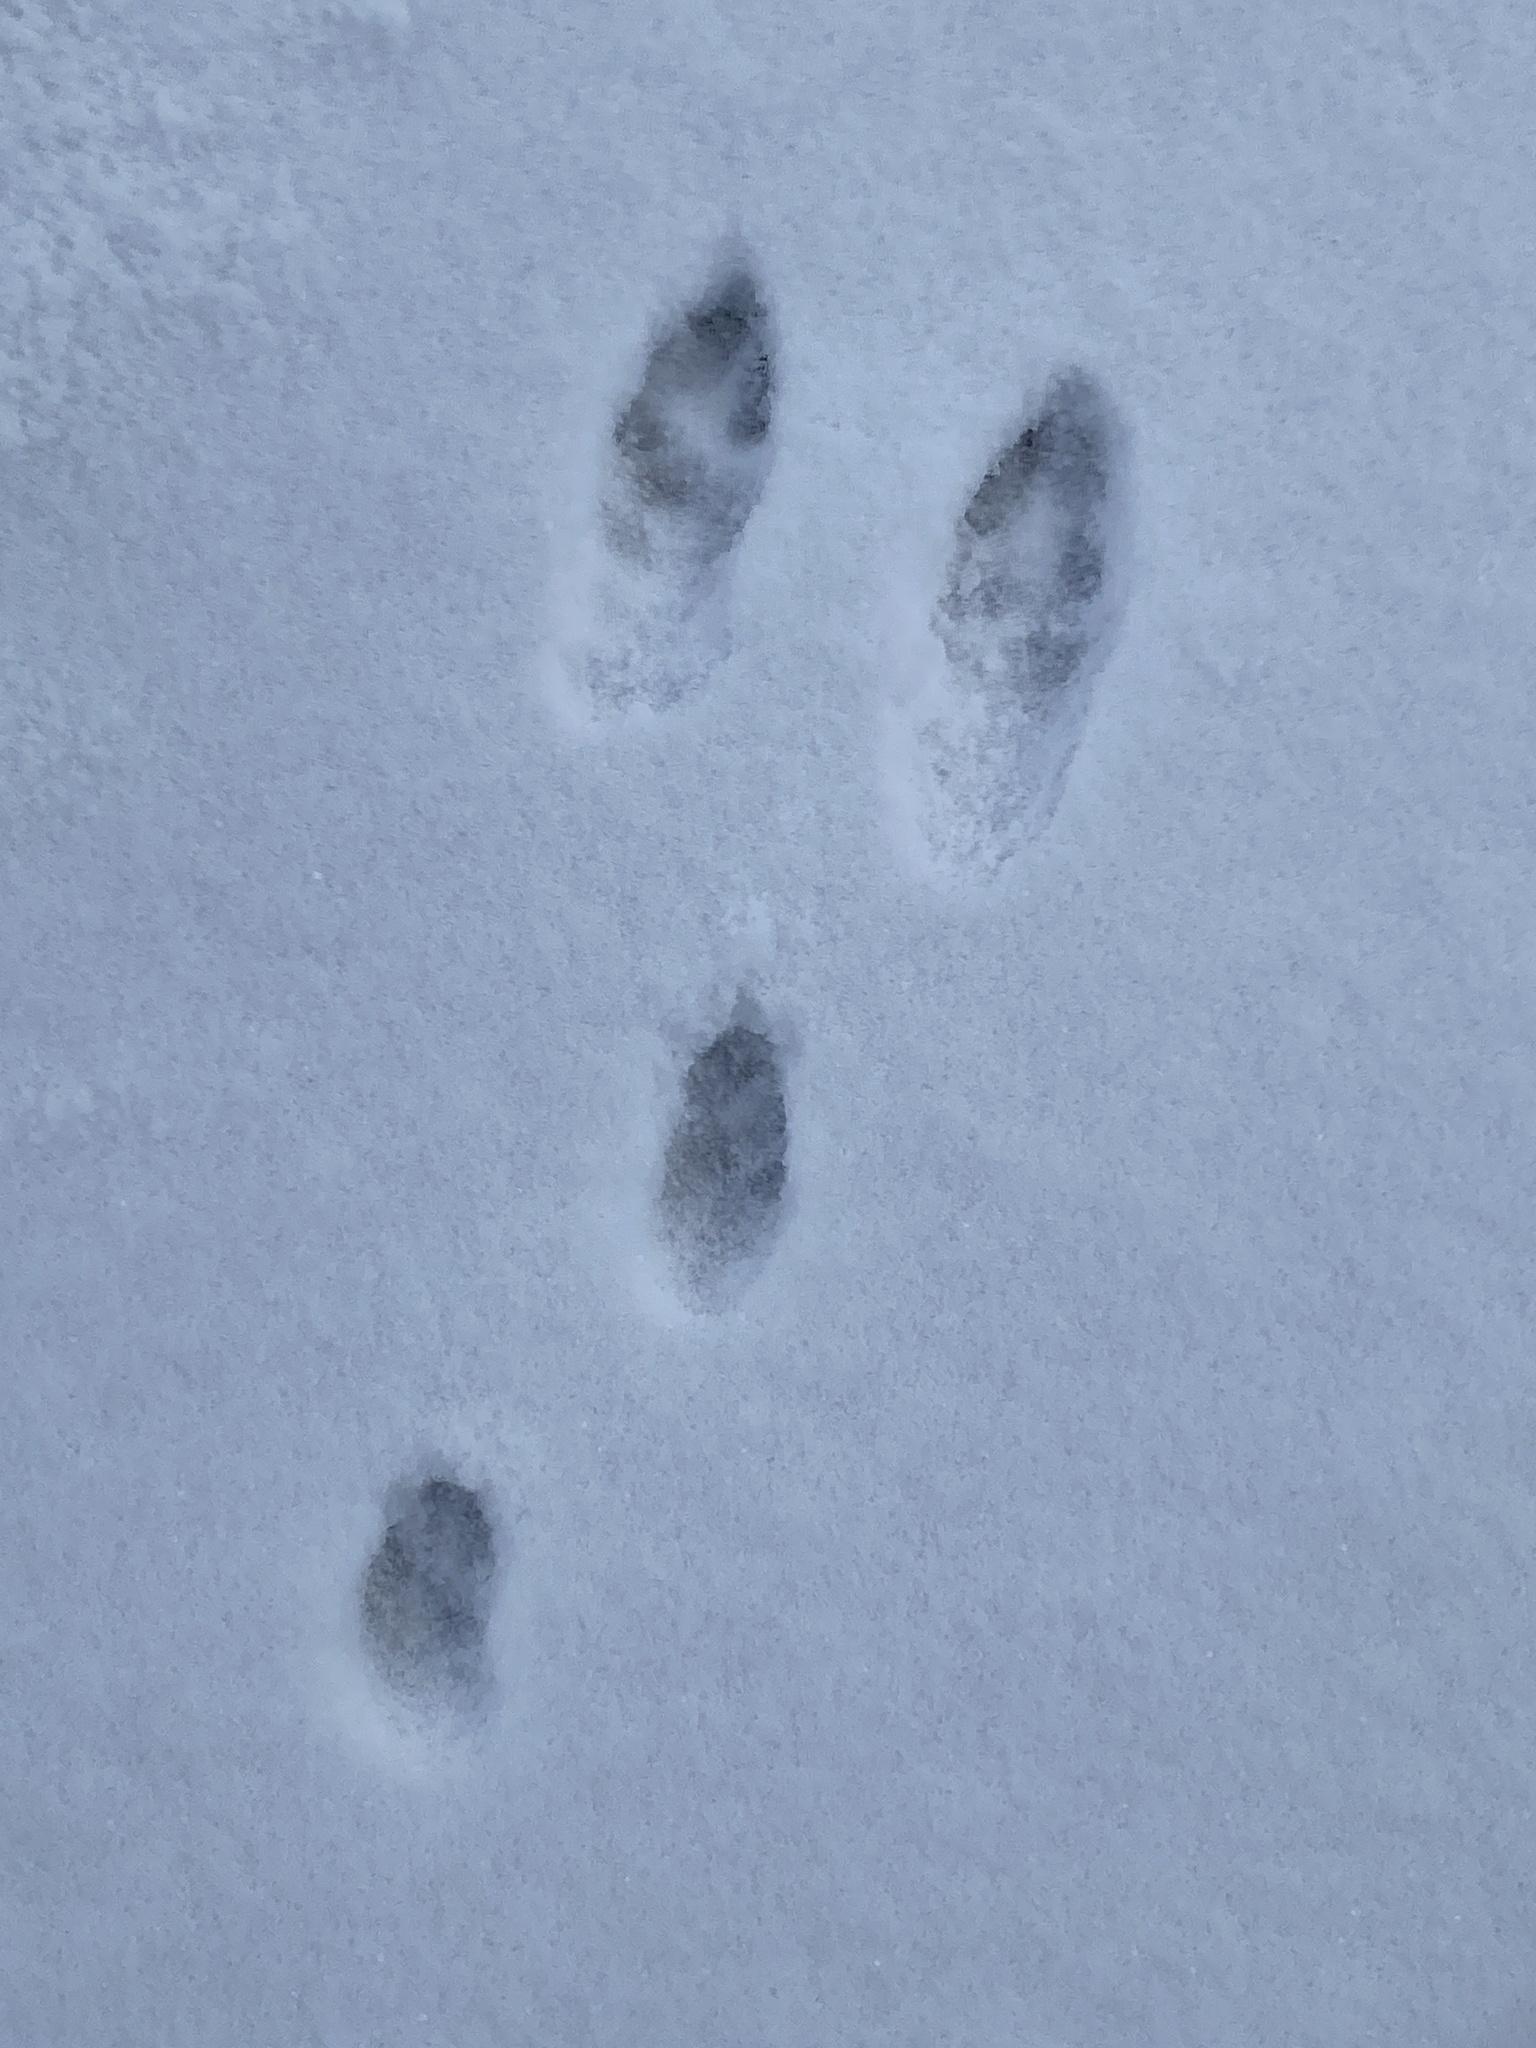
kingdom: Animalia
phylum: Chordata
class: Mammalia
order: Lagomorpha
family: Leporidae
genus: Sylvilagus
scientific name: Sylvilagus floridanus
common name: Eastern cottontail
